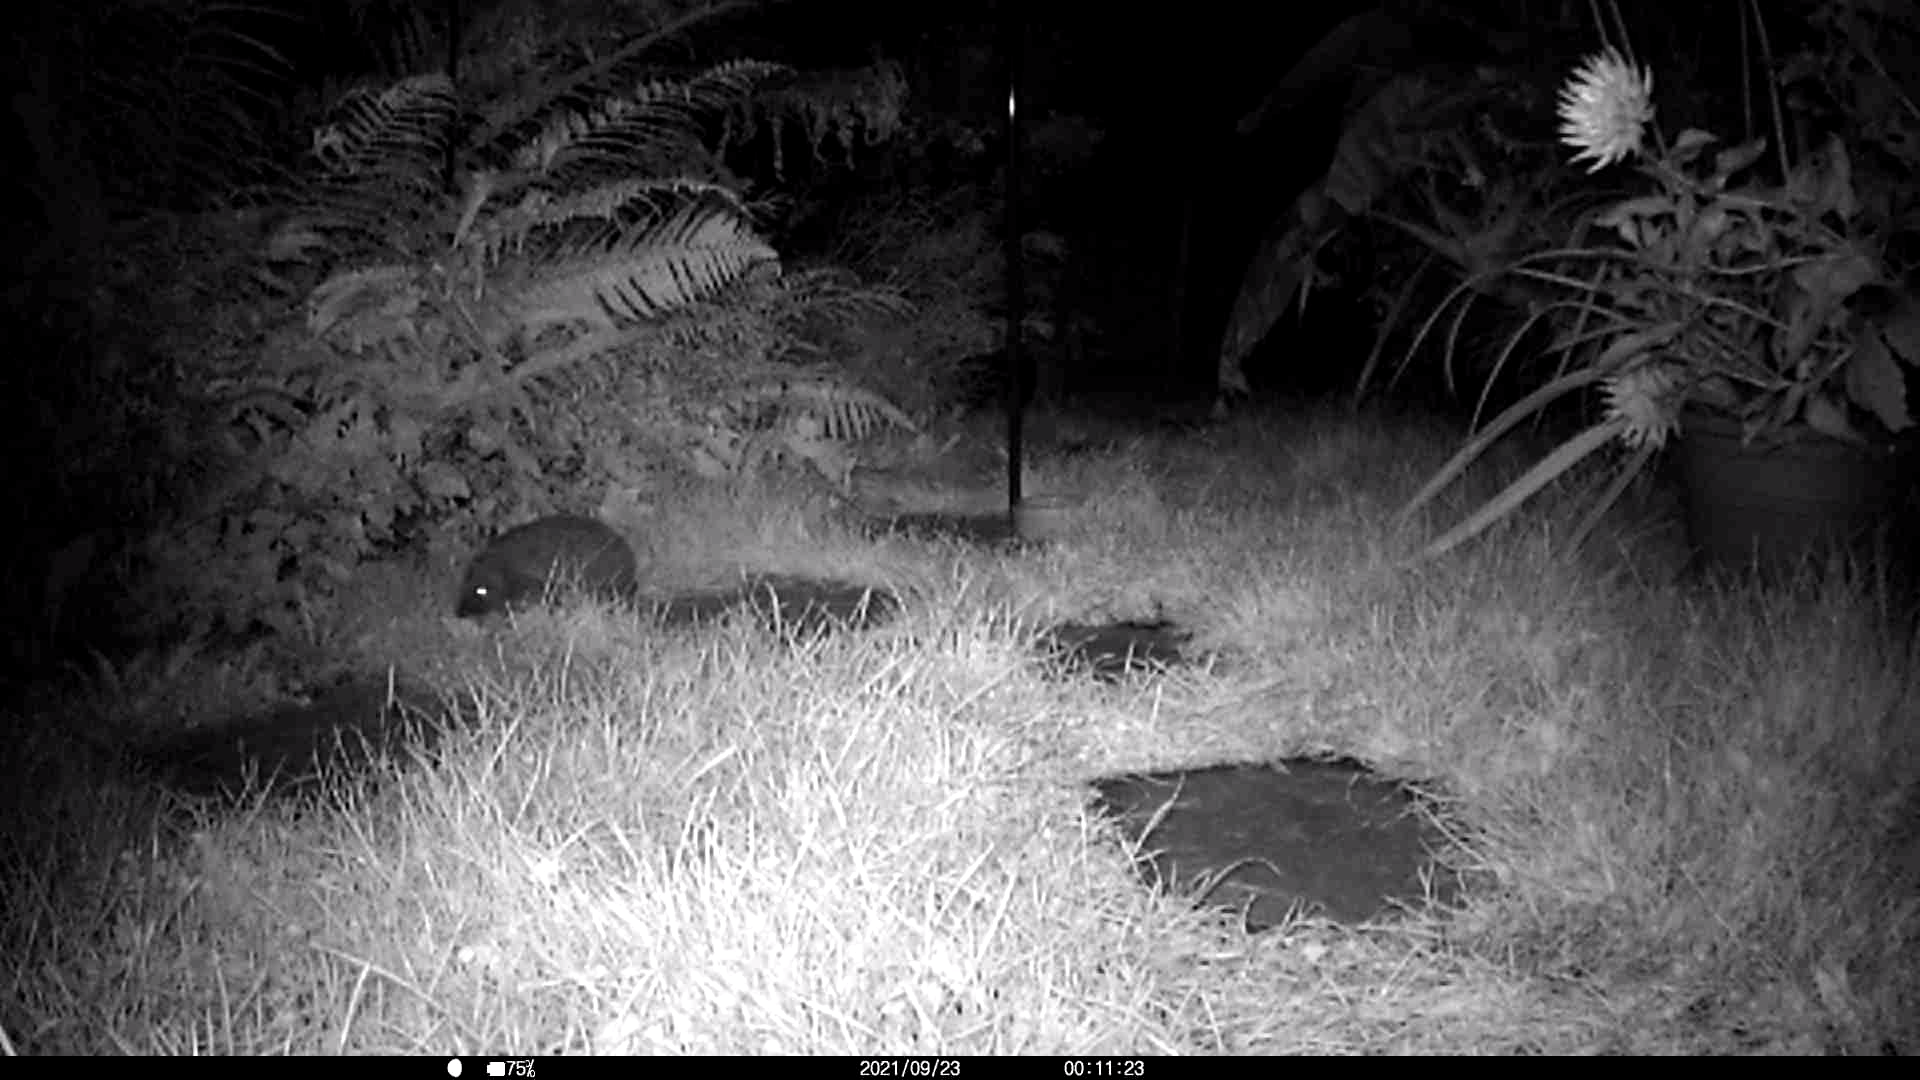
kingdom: Animalia
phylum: Chordata
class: Mammalia
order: Erinaceomorpha
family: Erinaceidae
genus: Erinaceus
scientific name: Erinaceus europaeus
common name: West european hedgehog
